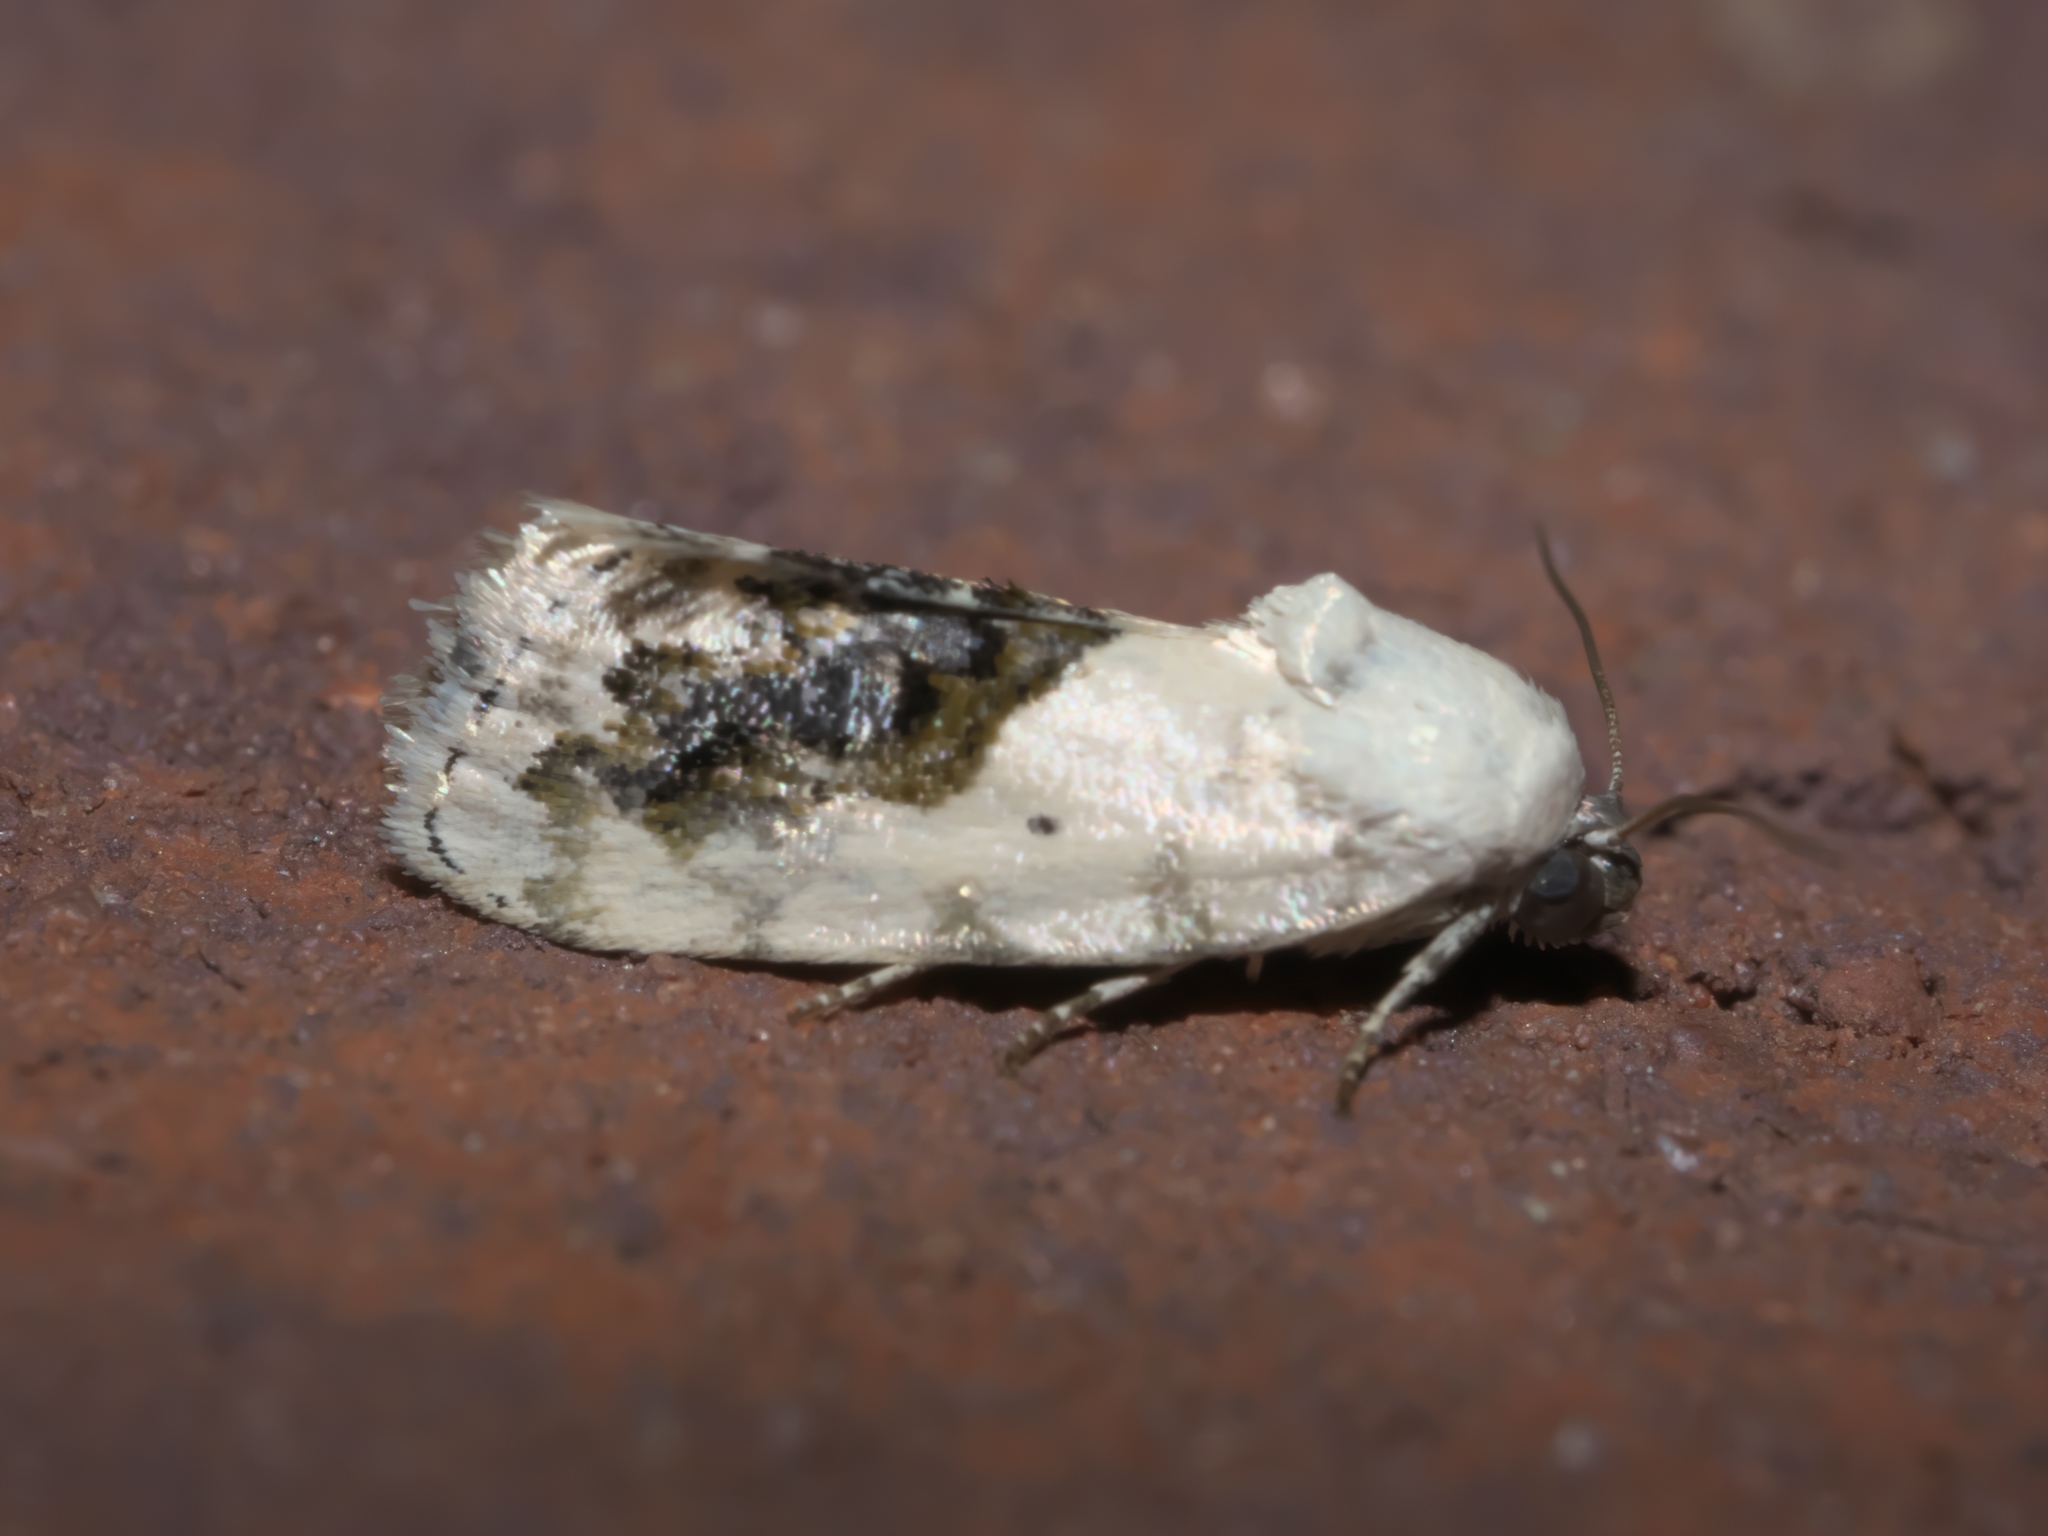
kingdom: Animalia
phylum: Arthropoda
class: Insecta
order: Lepidoptera
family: Noctuidae
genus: Acontia
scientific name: Acontia erastrioides
